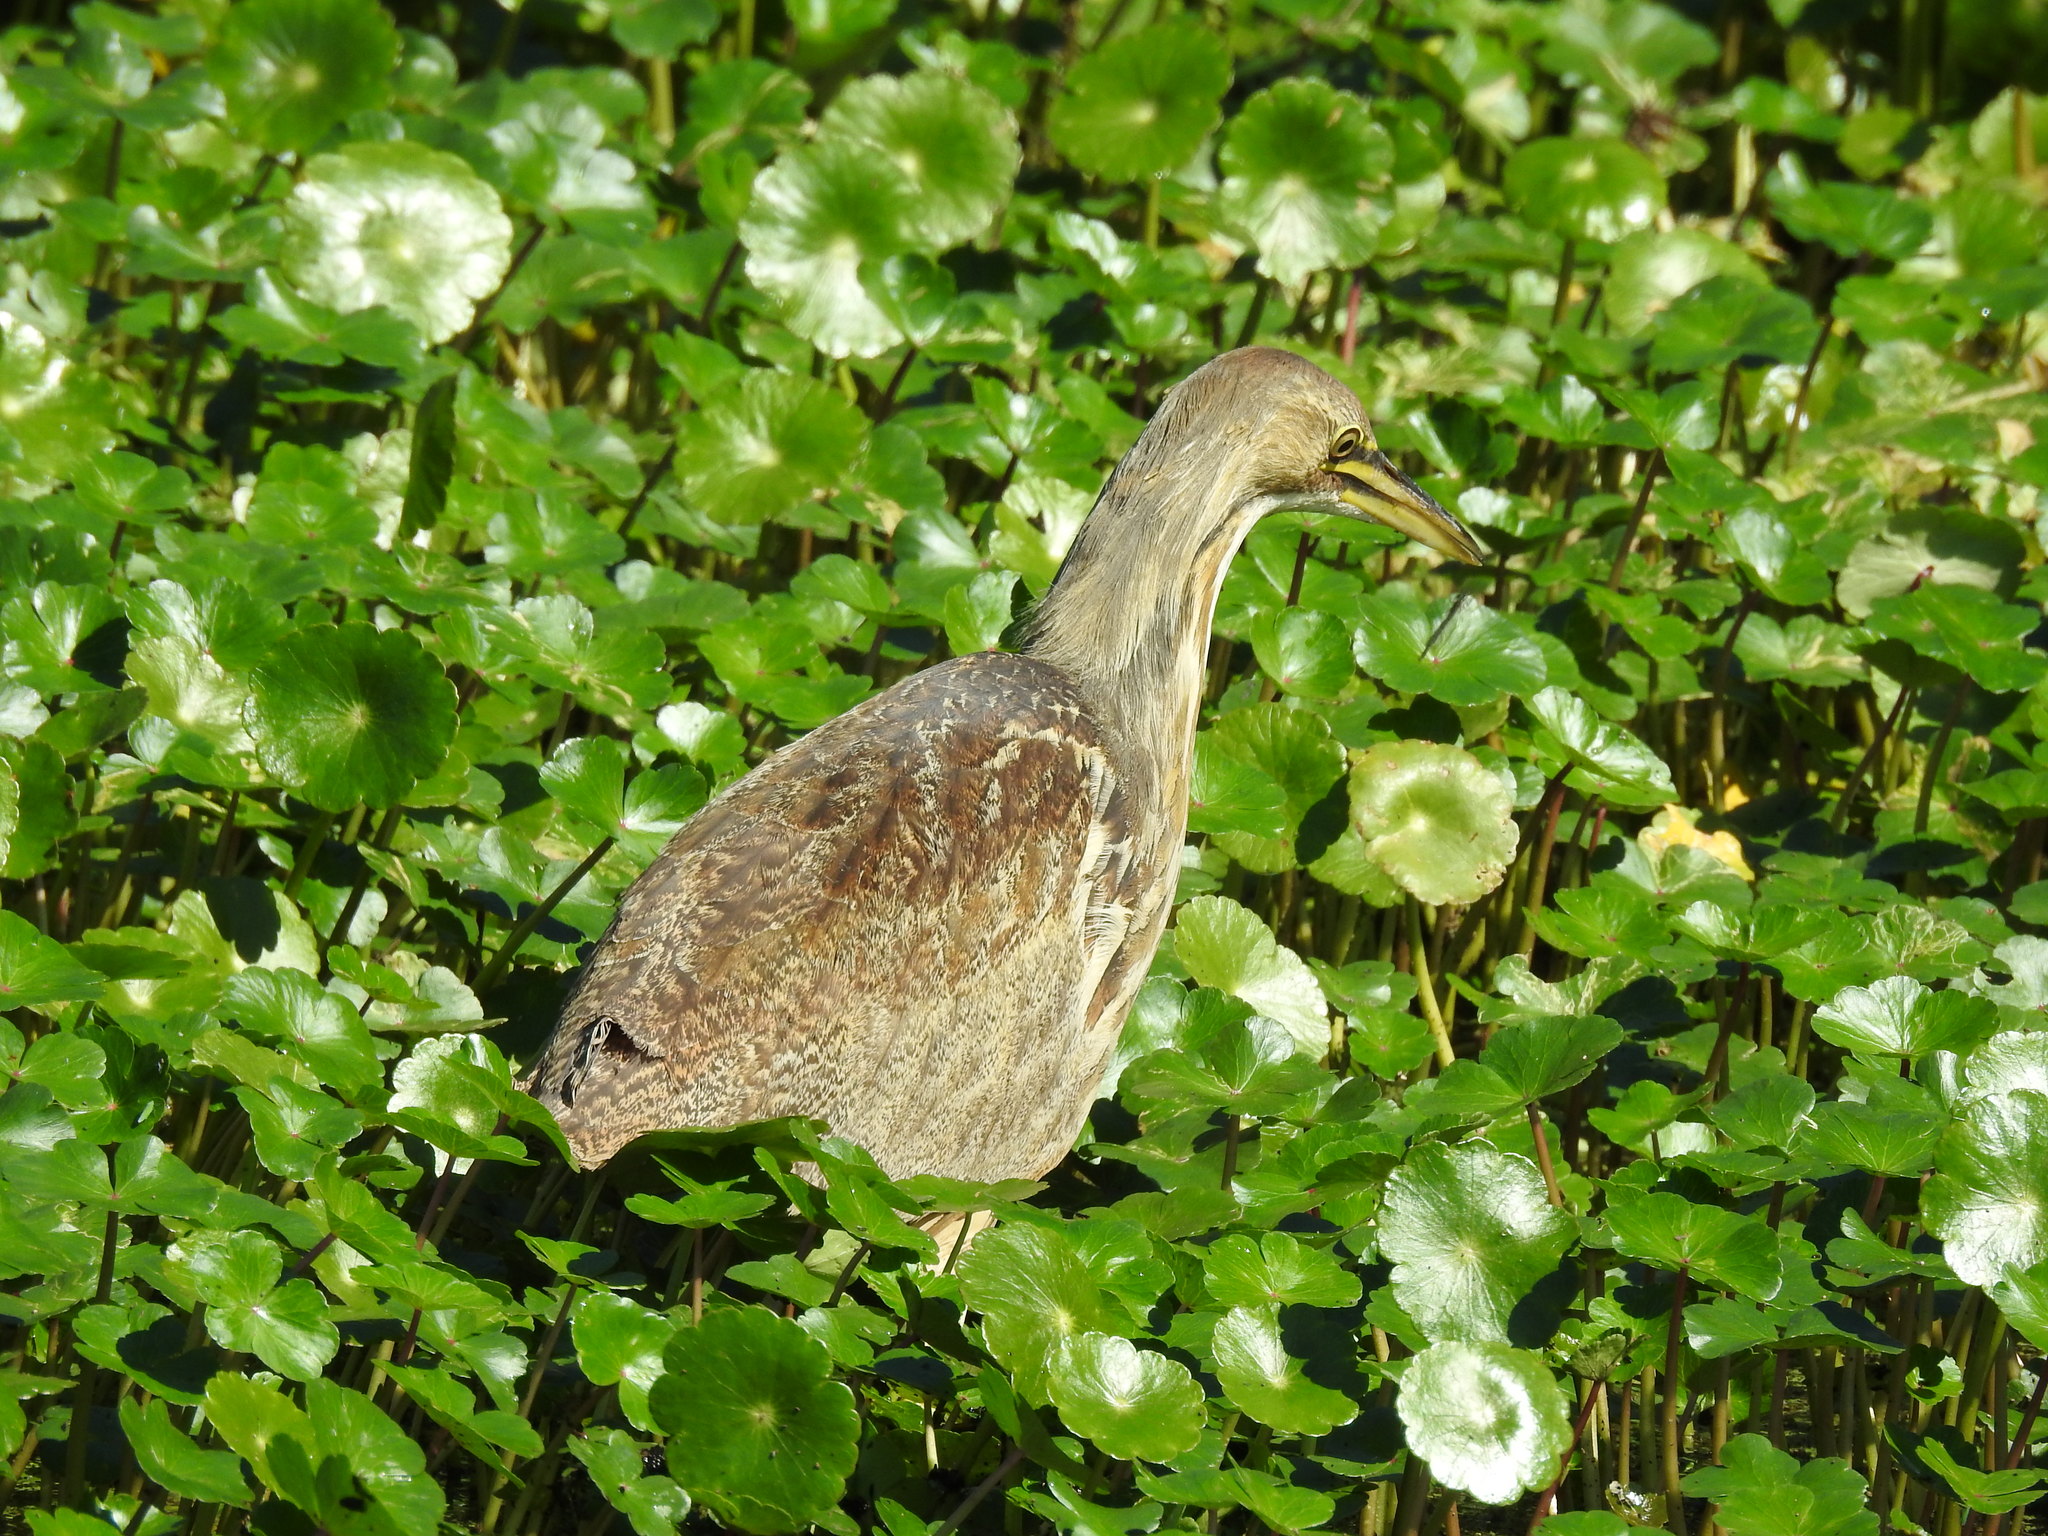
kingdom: Animalia
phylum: Chordata
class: Aves
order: Pelecaniformes
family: Ardeidae
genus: Botaurus
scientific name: Botaurus lentiginosus
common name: American bittern
